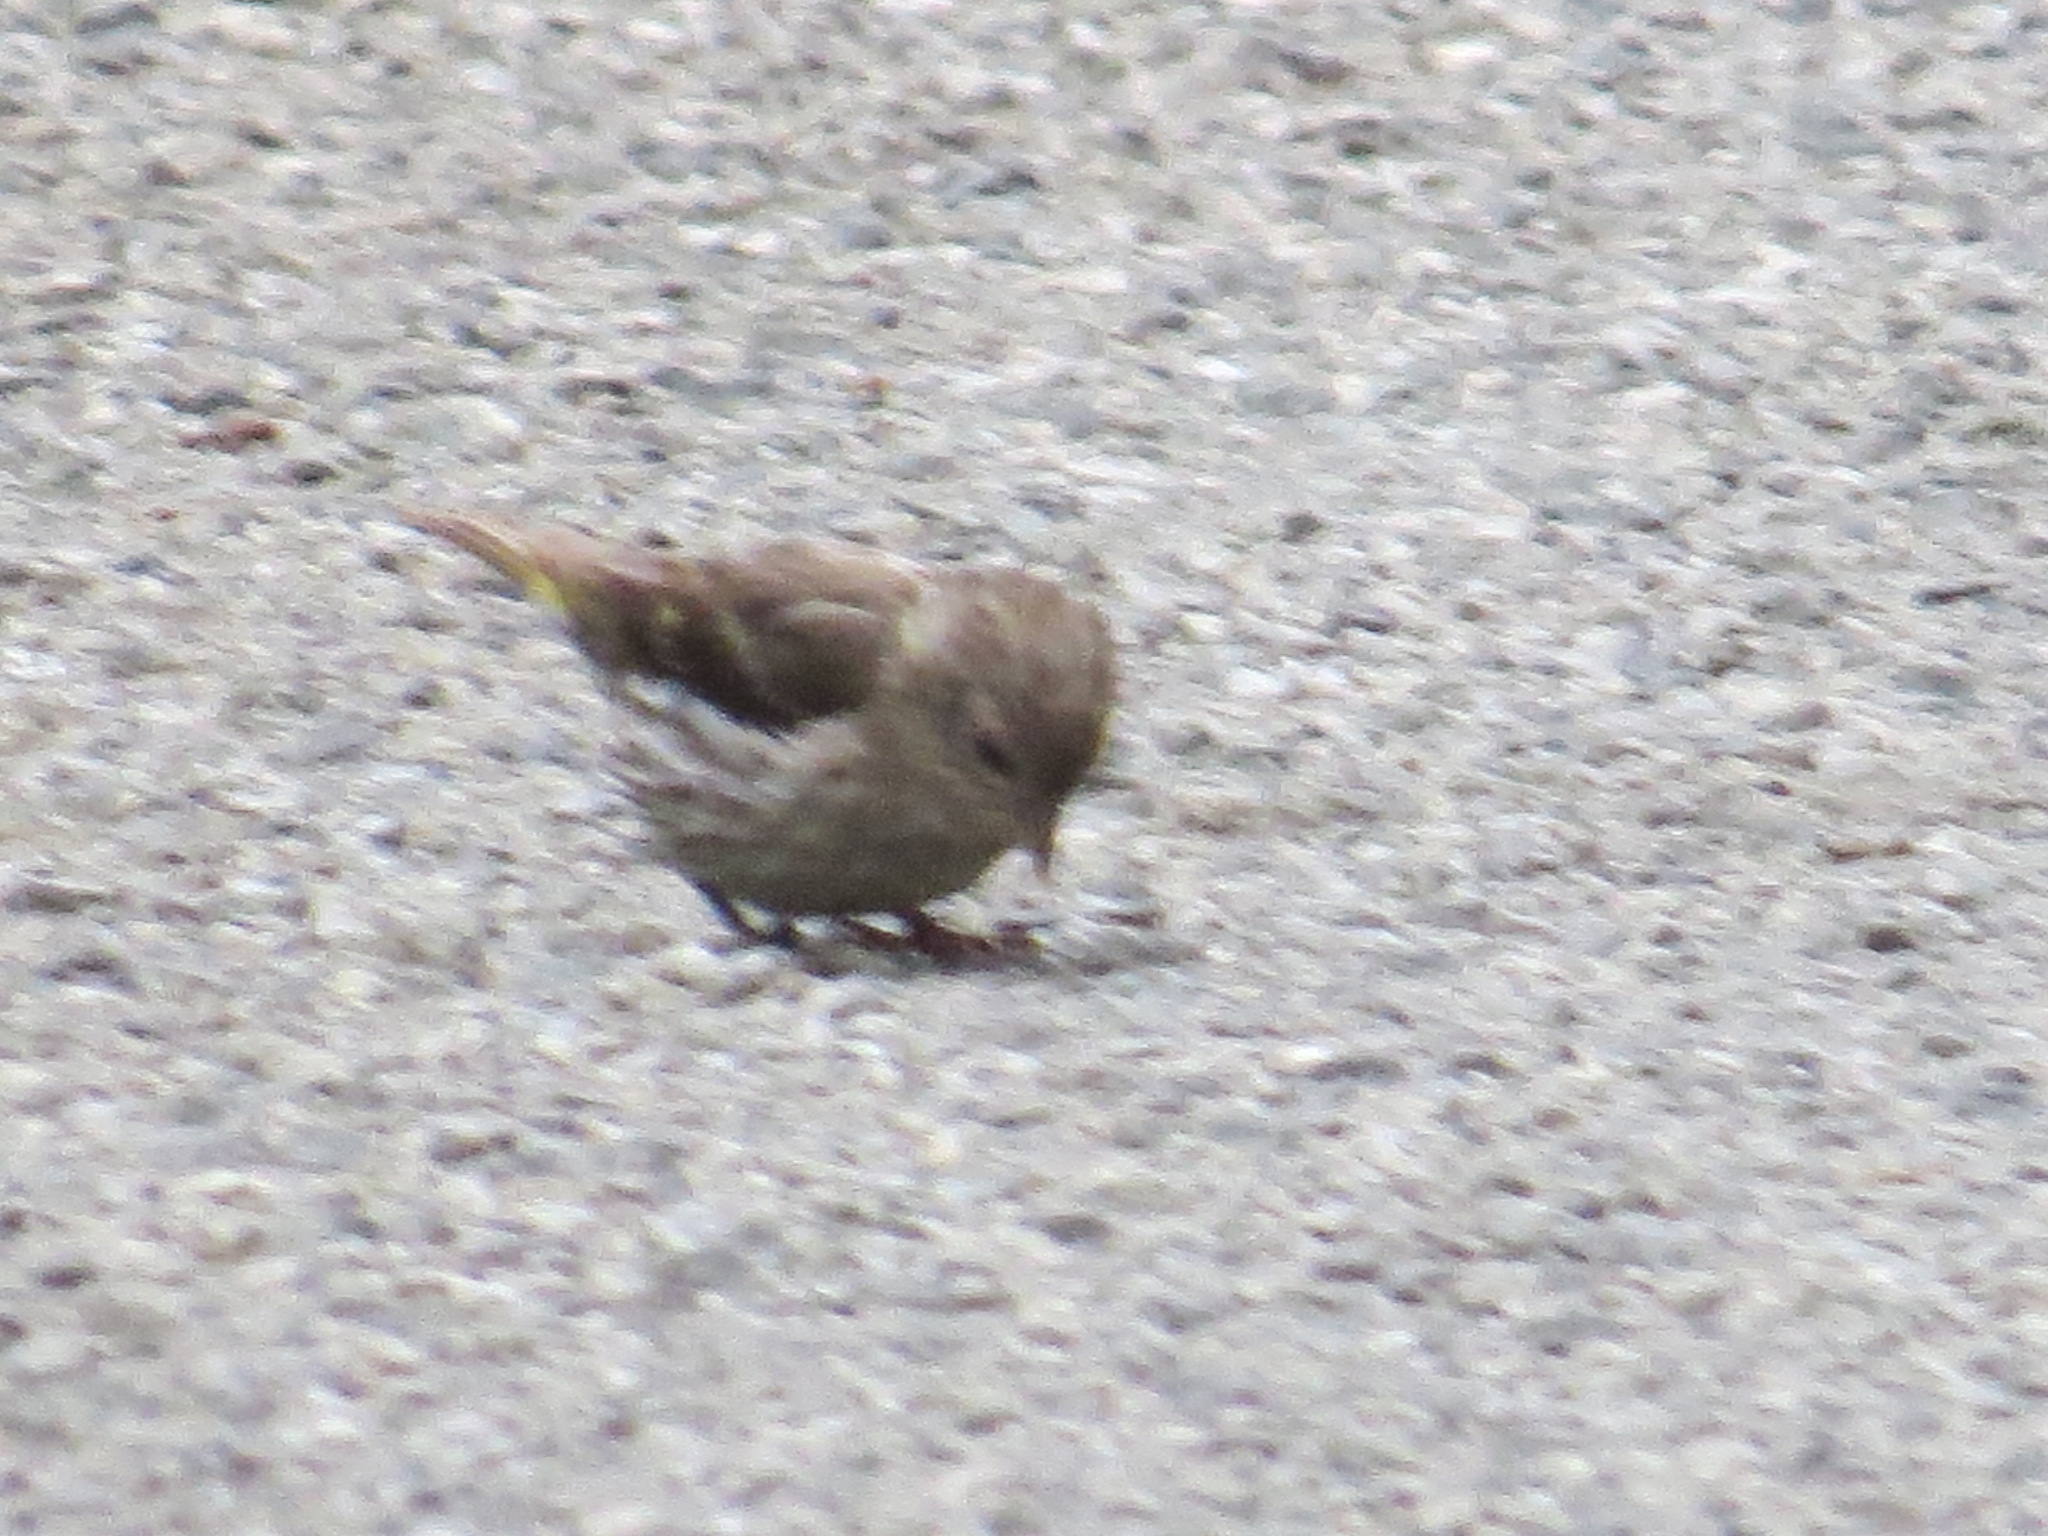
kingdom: Animalia
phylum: Chordata
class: Aves
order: Passeriformes
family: Fringillidae
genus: Spinus
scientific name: Spinus pinus
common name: Pine siskin
